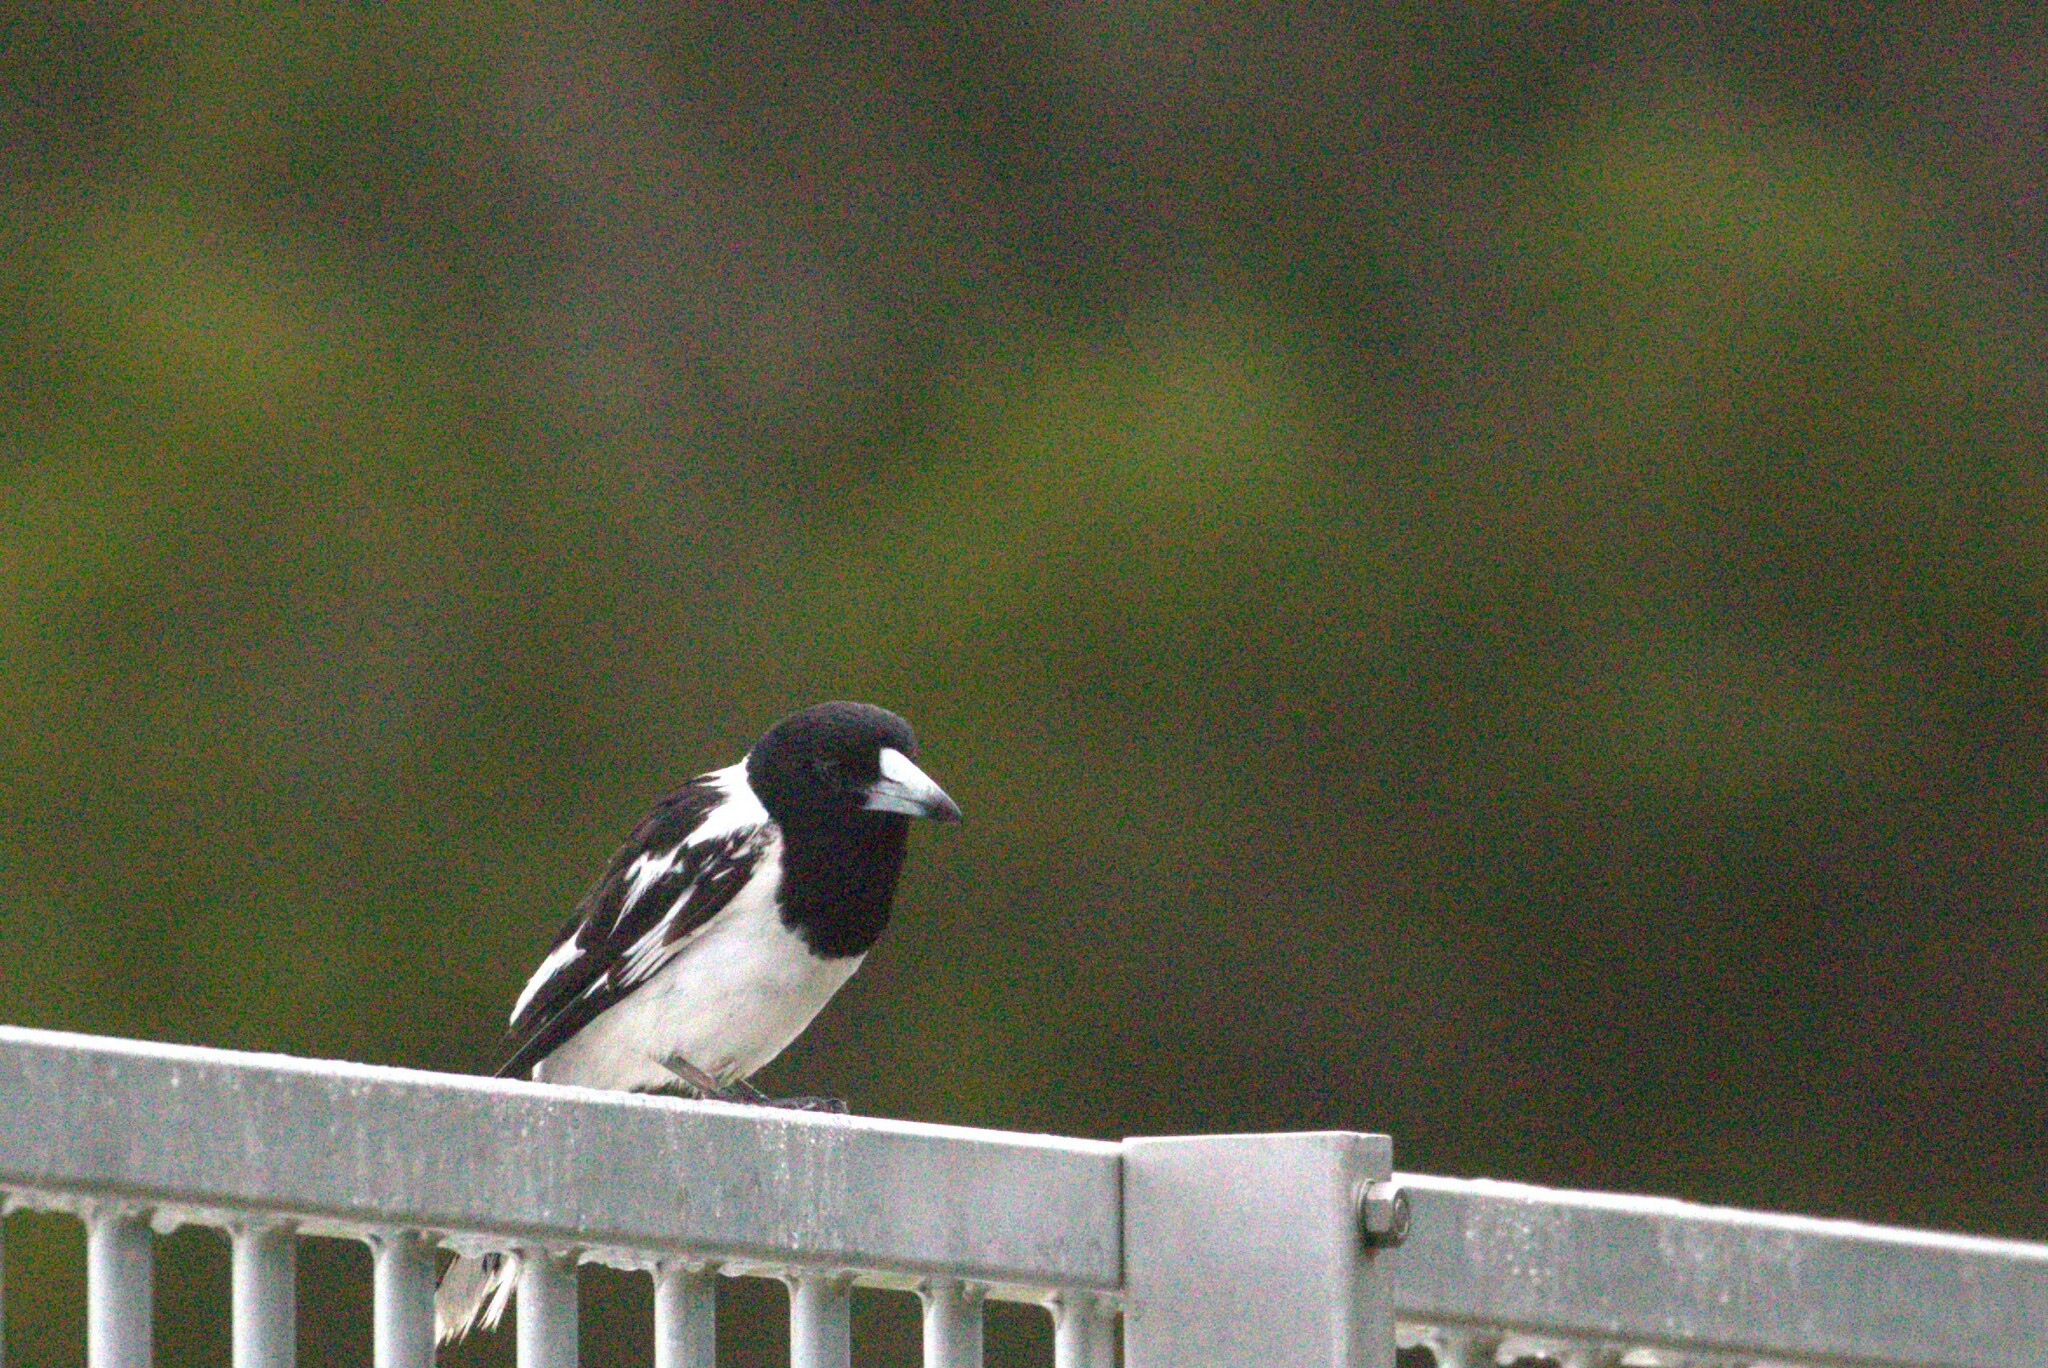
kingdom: Animalia
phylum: Chordata
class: Aves
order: Passeriformes
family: Cracticidae
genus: Cracticus
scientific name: Cracticus nigrogularis
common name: Pied butcherbird
